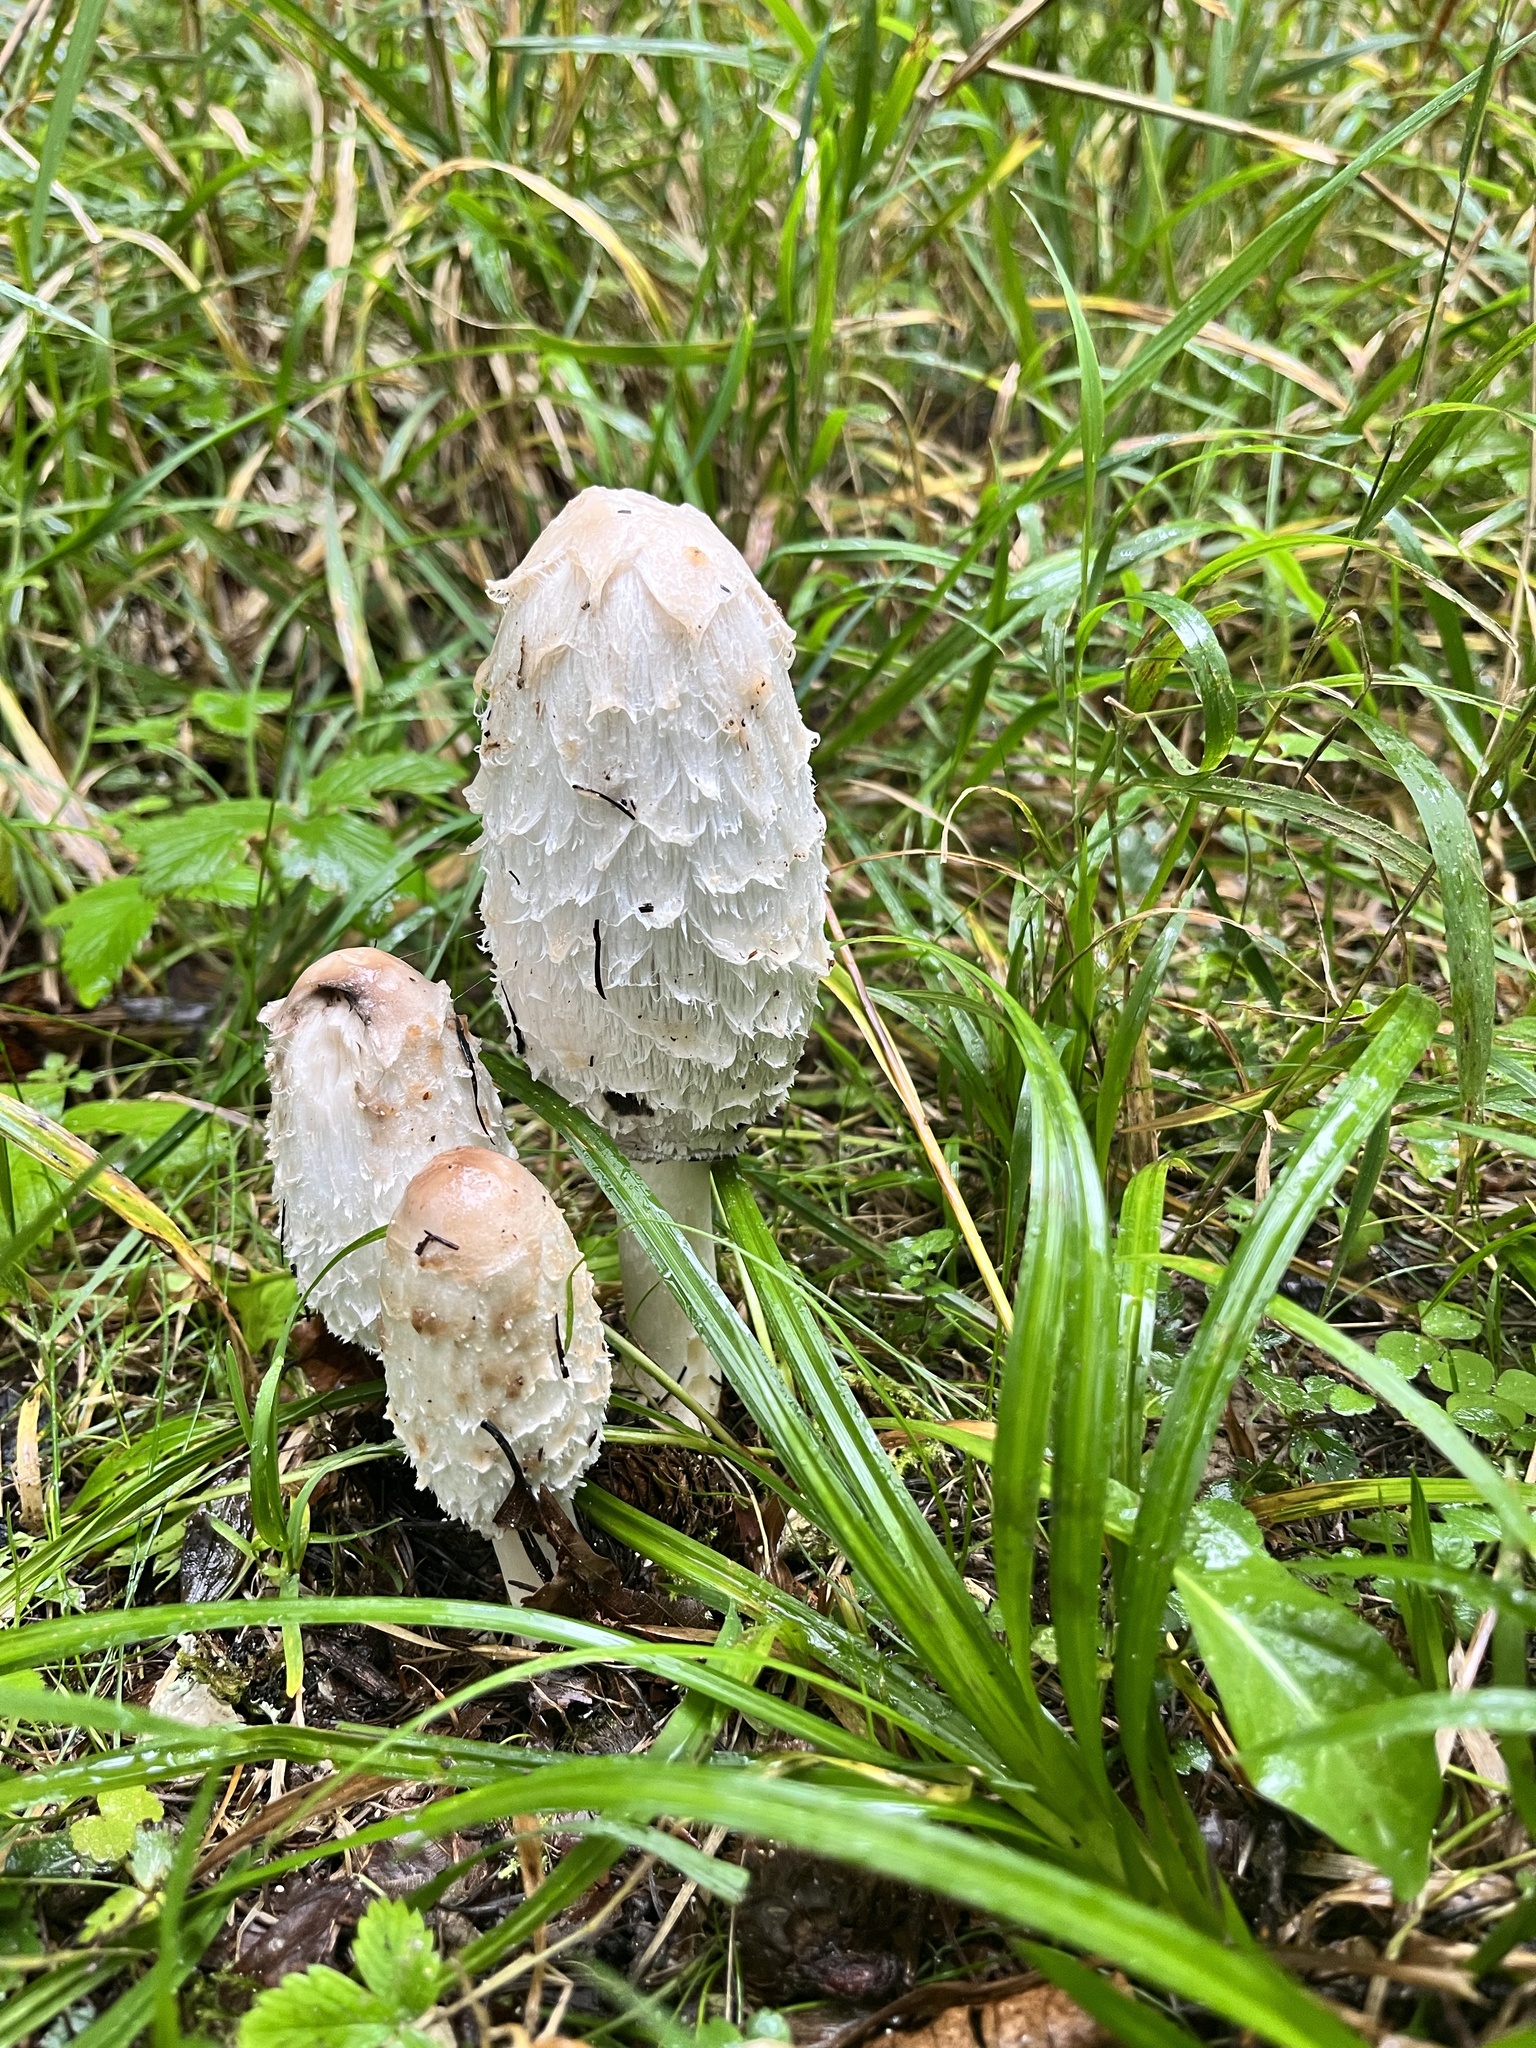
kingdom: Fungi
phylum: Basidiomycota
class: Agaricomycetes
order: Agaricales
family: Agaricaceae
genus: Coprinus
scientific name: Coprinus comatus
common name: Lawyer's wig
